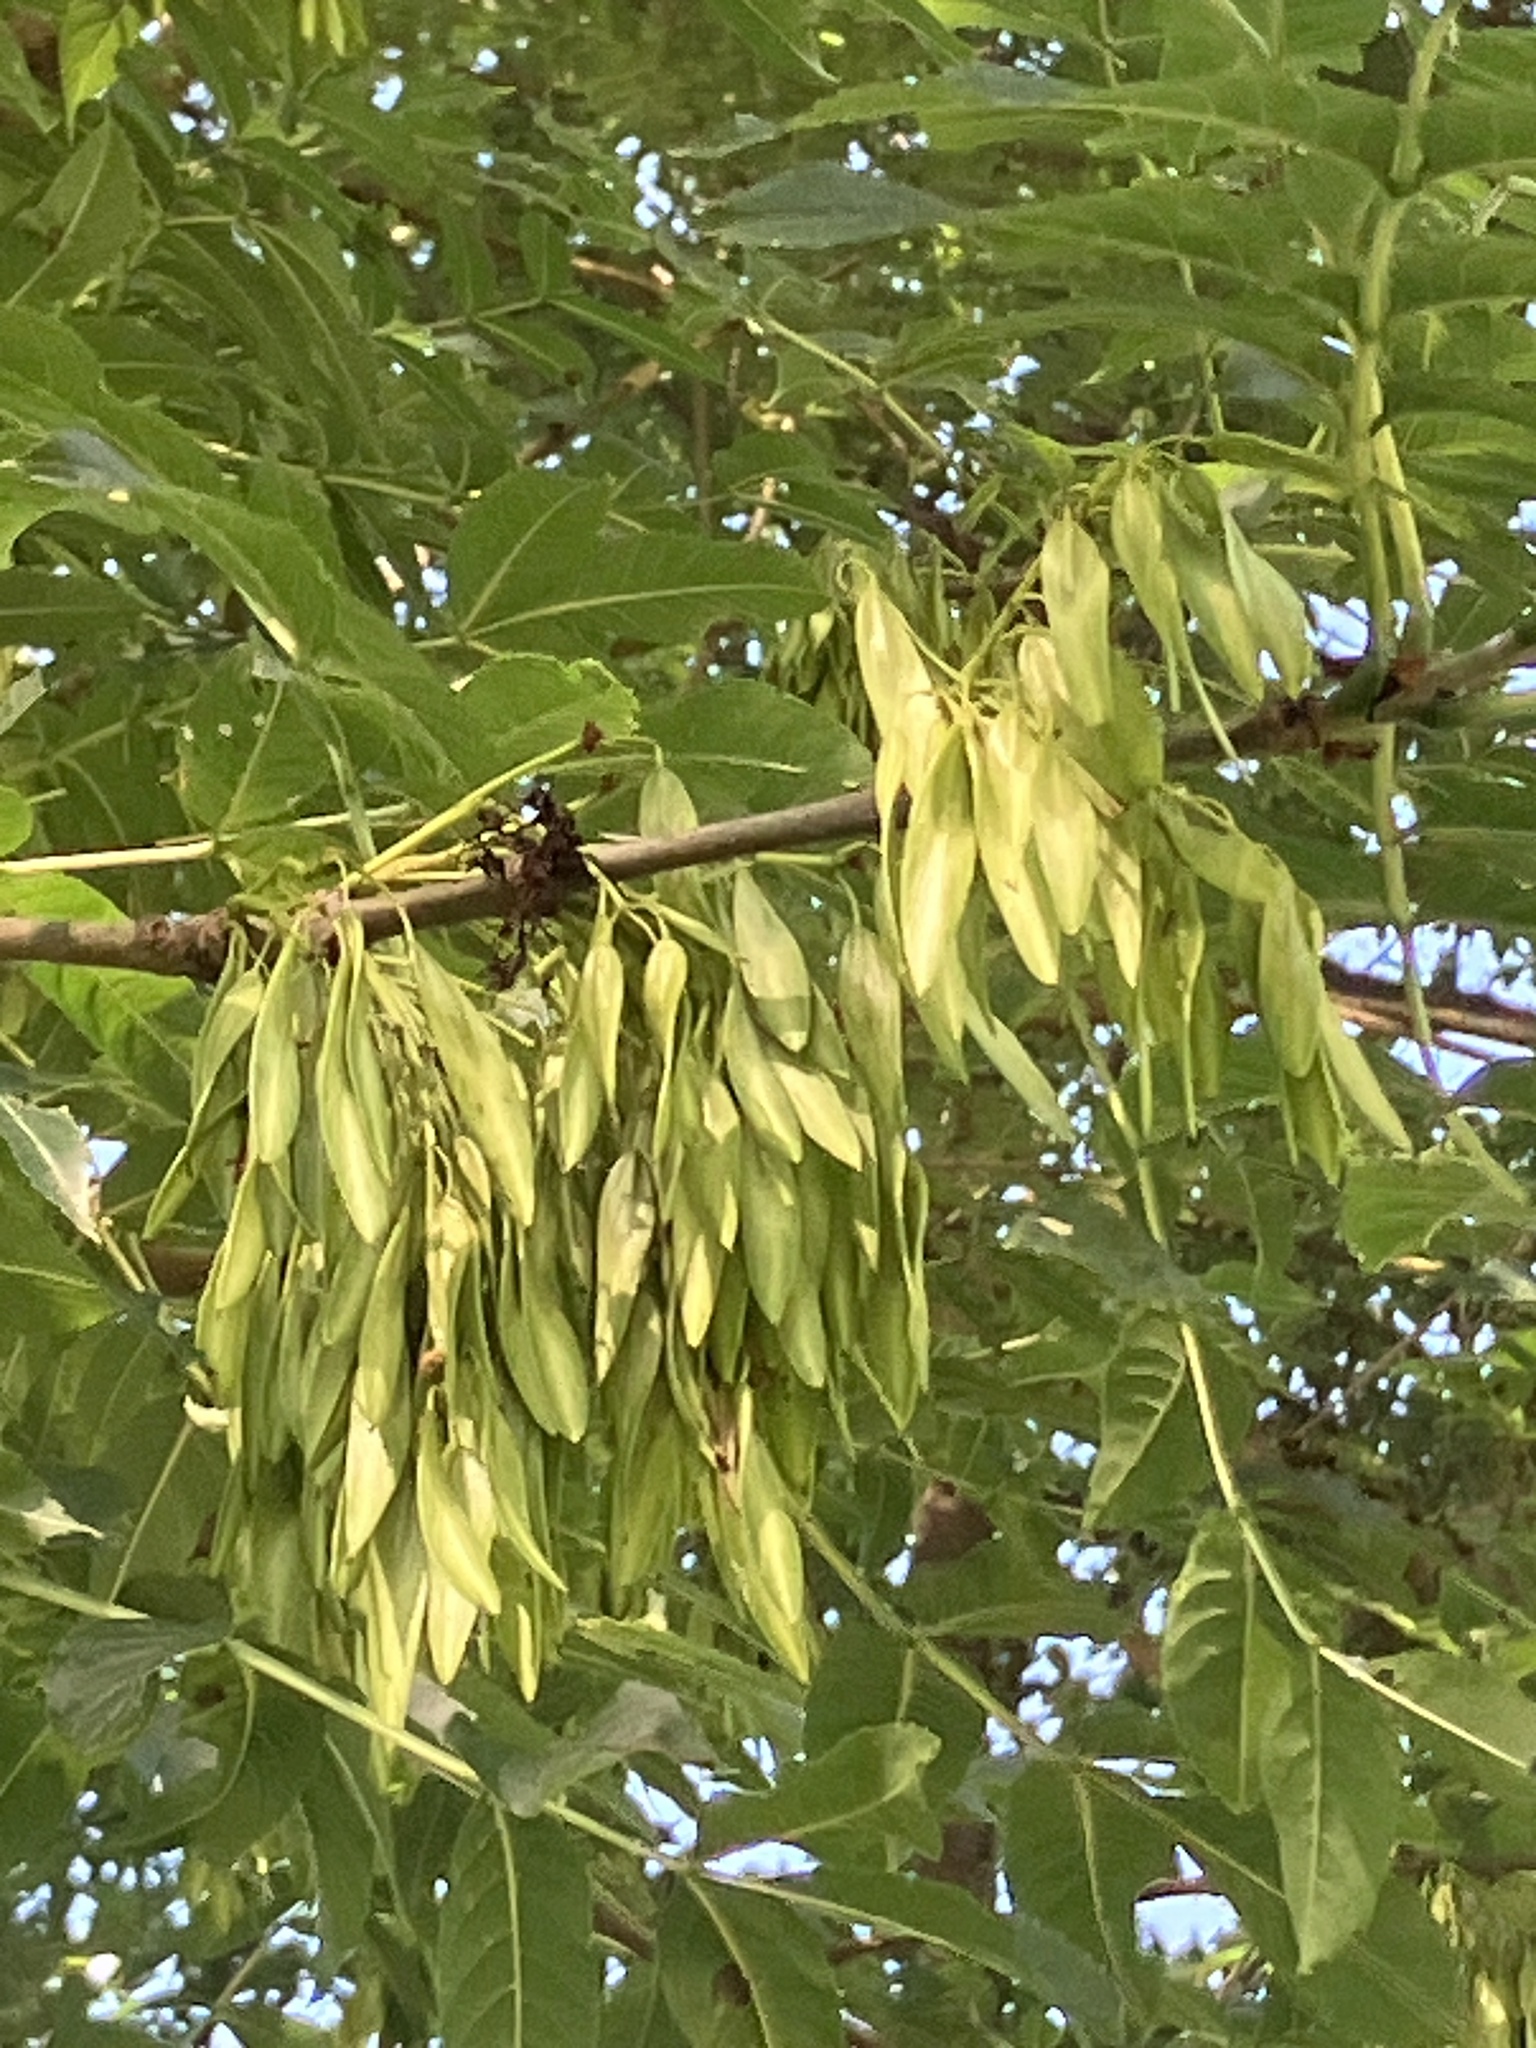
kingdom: Plantae
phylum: Tracheophyta
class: Magnoliopsida
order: Lamiales
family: Oleaceae
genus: Fraxinus
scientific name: Fraxinus excelsior
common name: European ash
